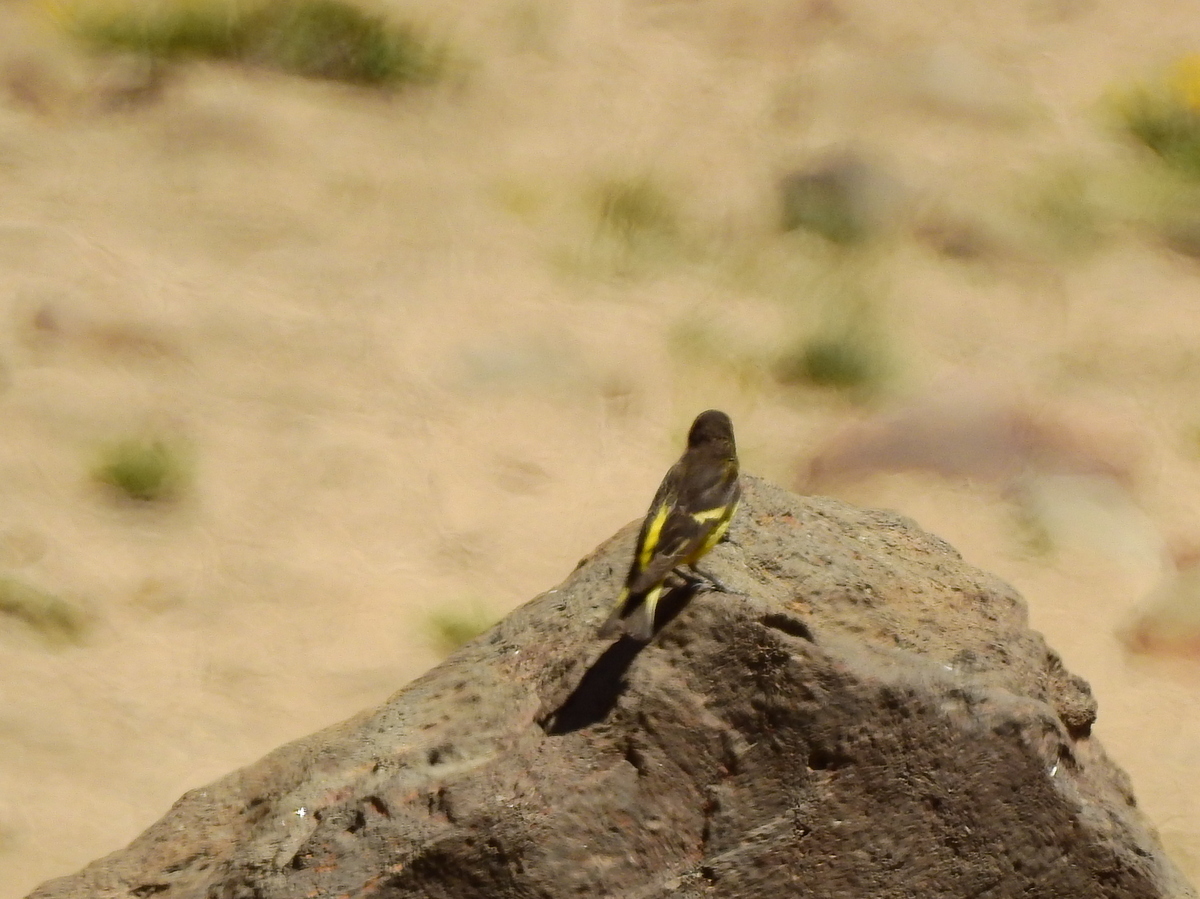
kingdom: Animalia
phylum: Chordata
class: Aves
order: Passeriformes
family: Fringillidae
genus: Spinus
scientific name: Spinus uropygialis
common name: Yellow-rumped siskin
